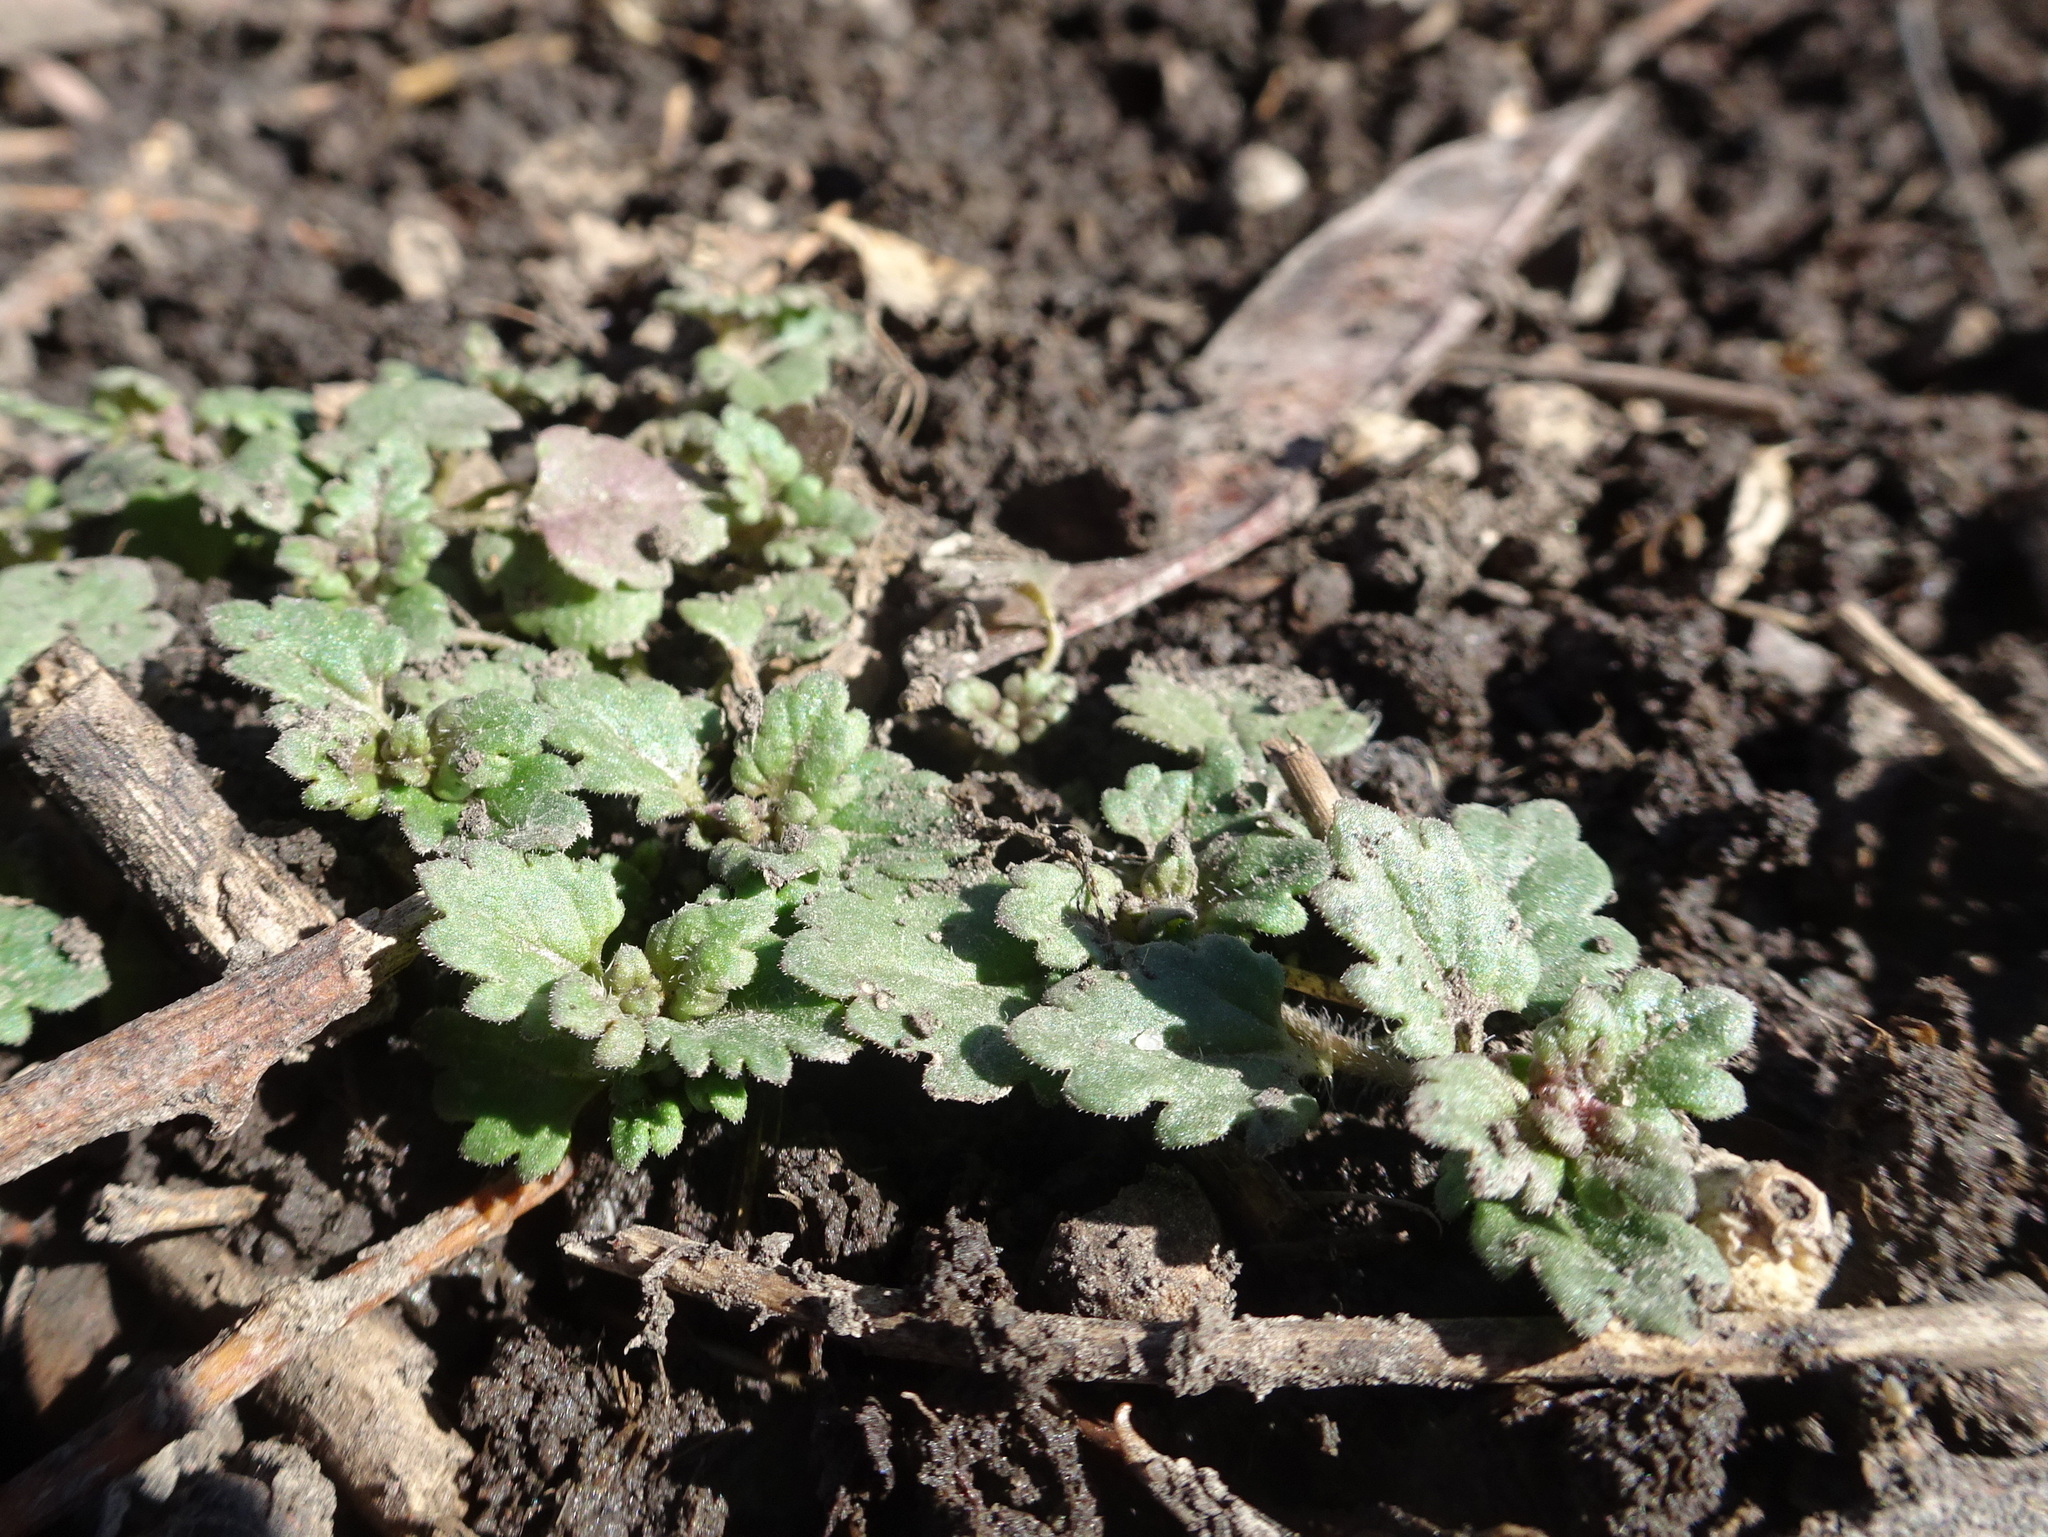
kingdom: Plantae
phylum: Tracheophyta
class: Magnoliopsida
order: Lamiales
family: Plantaginaceae
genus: Veronica
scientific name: Veronica polita
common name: Grey field-speedwell
